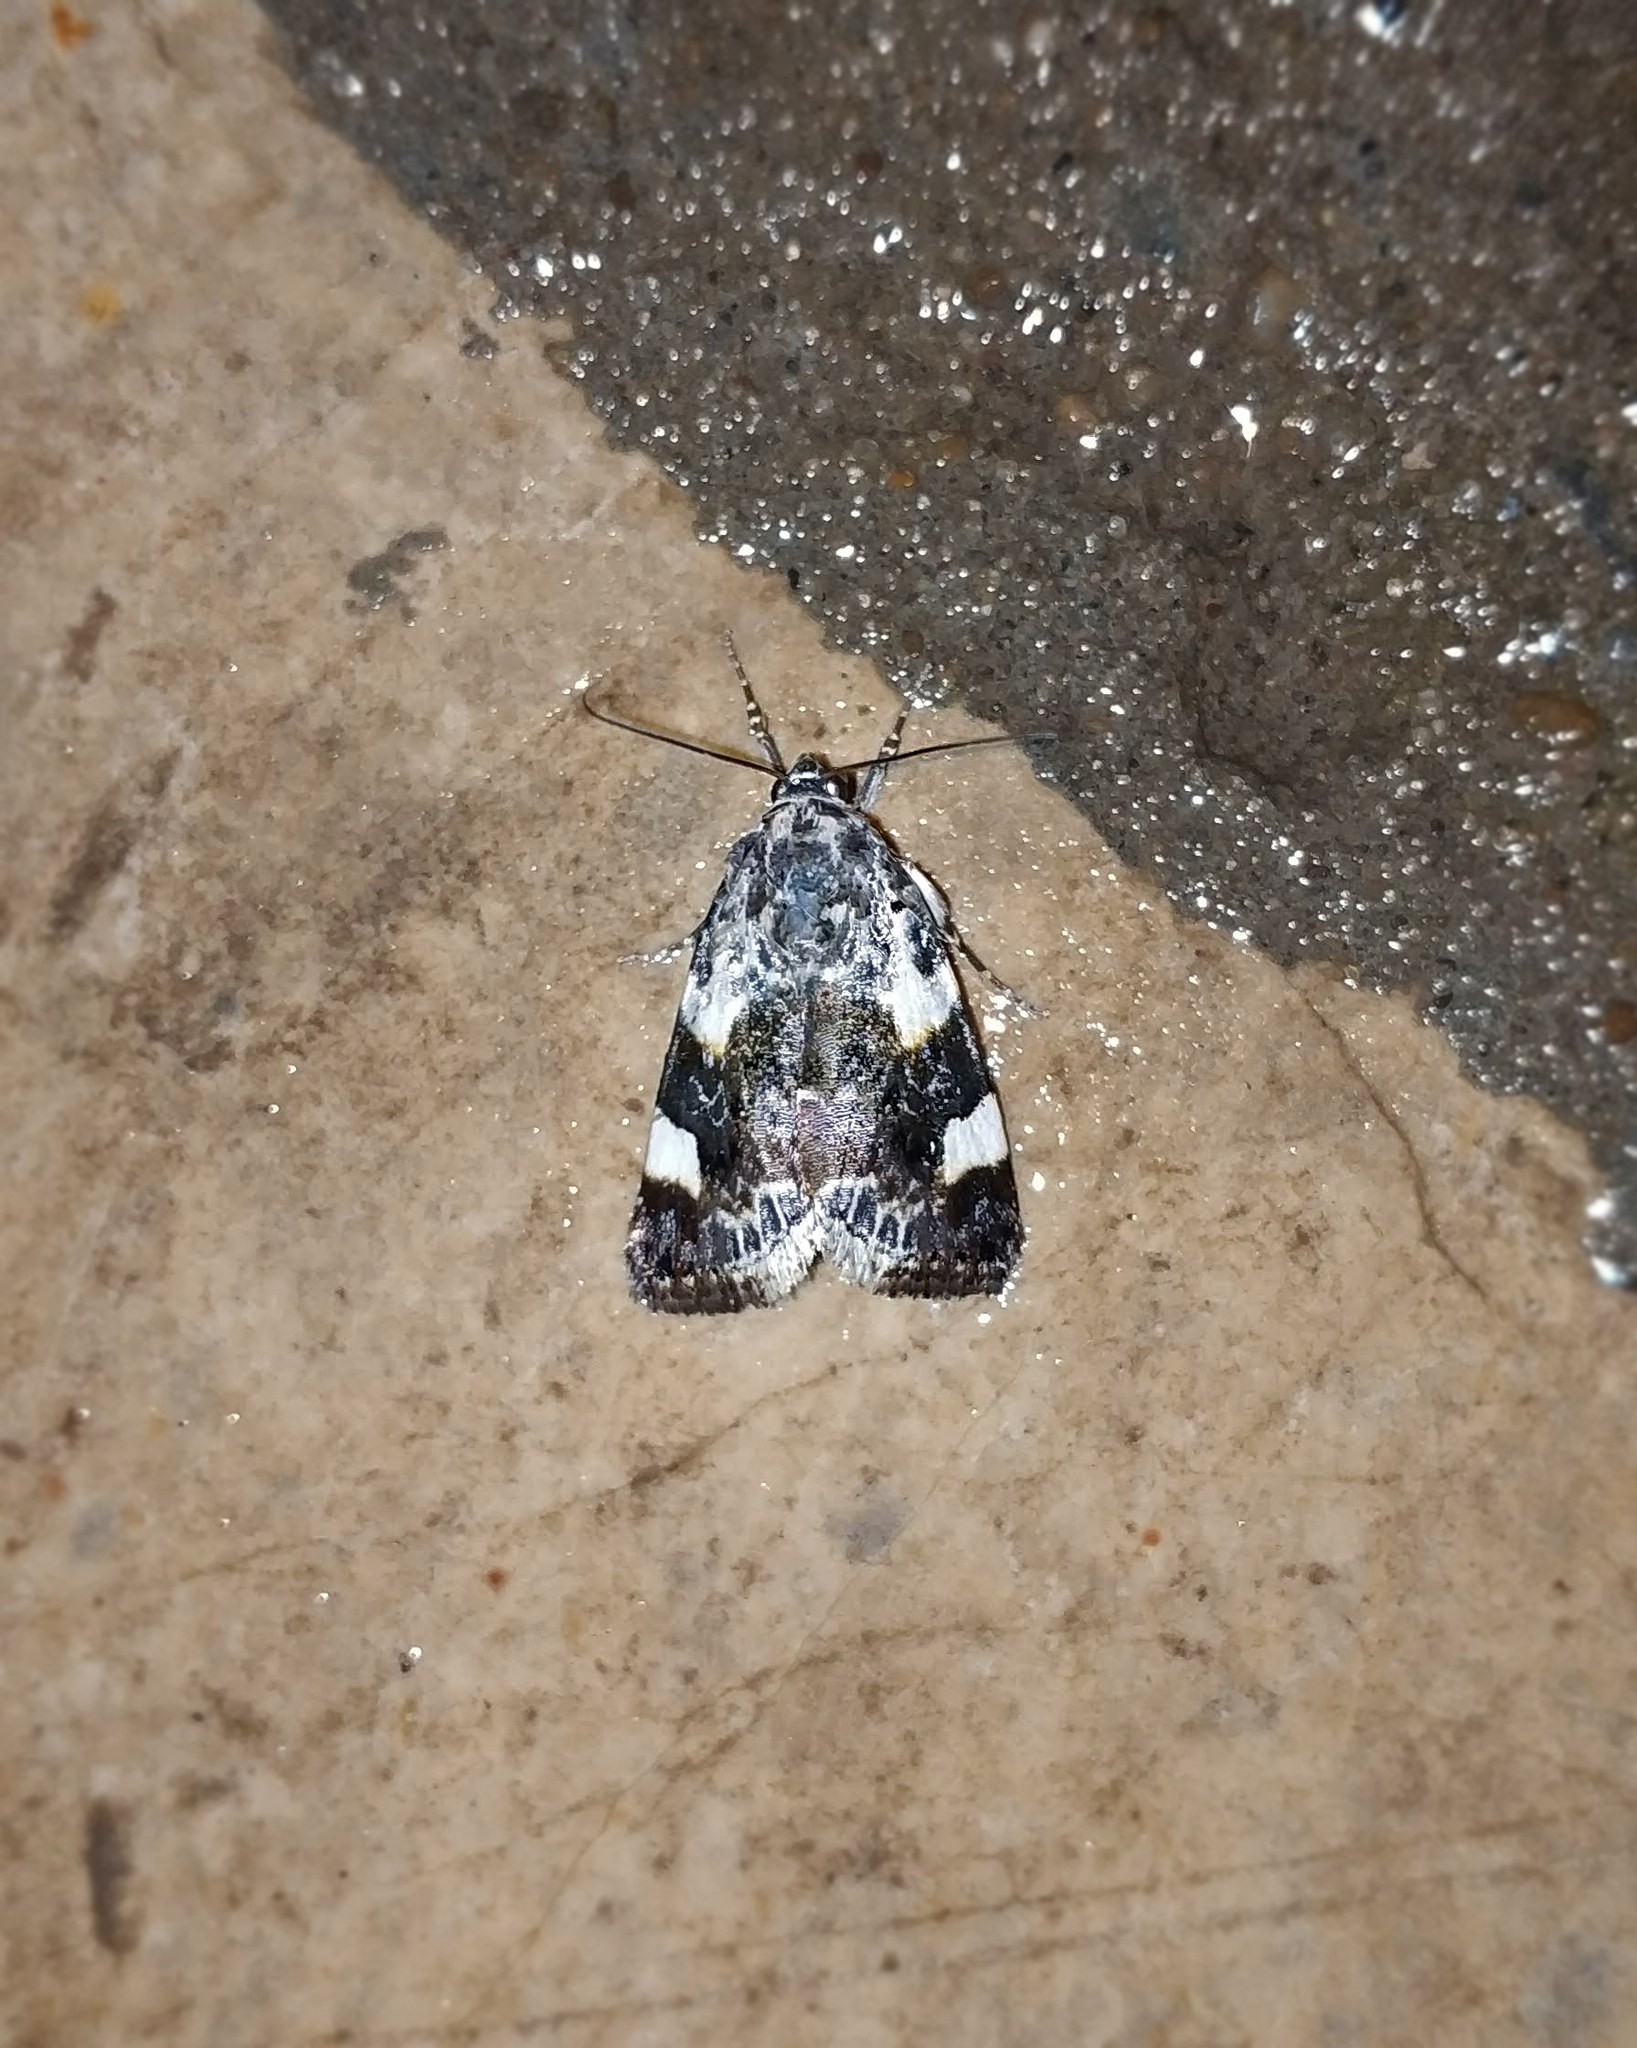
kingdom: Animalia
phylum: Arthropoda
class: Insecta
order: Lepidoptera
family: Noctuidae
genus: Acontia
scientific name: Acontia lucida
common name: Pale shoulder
